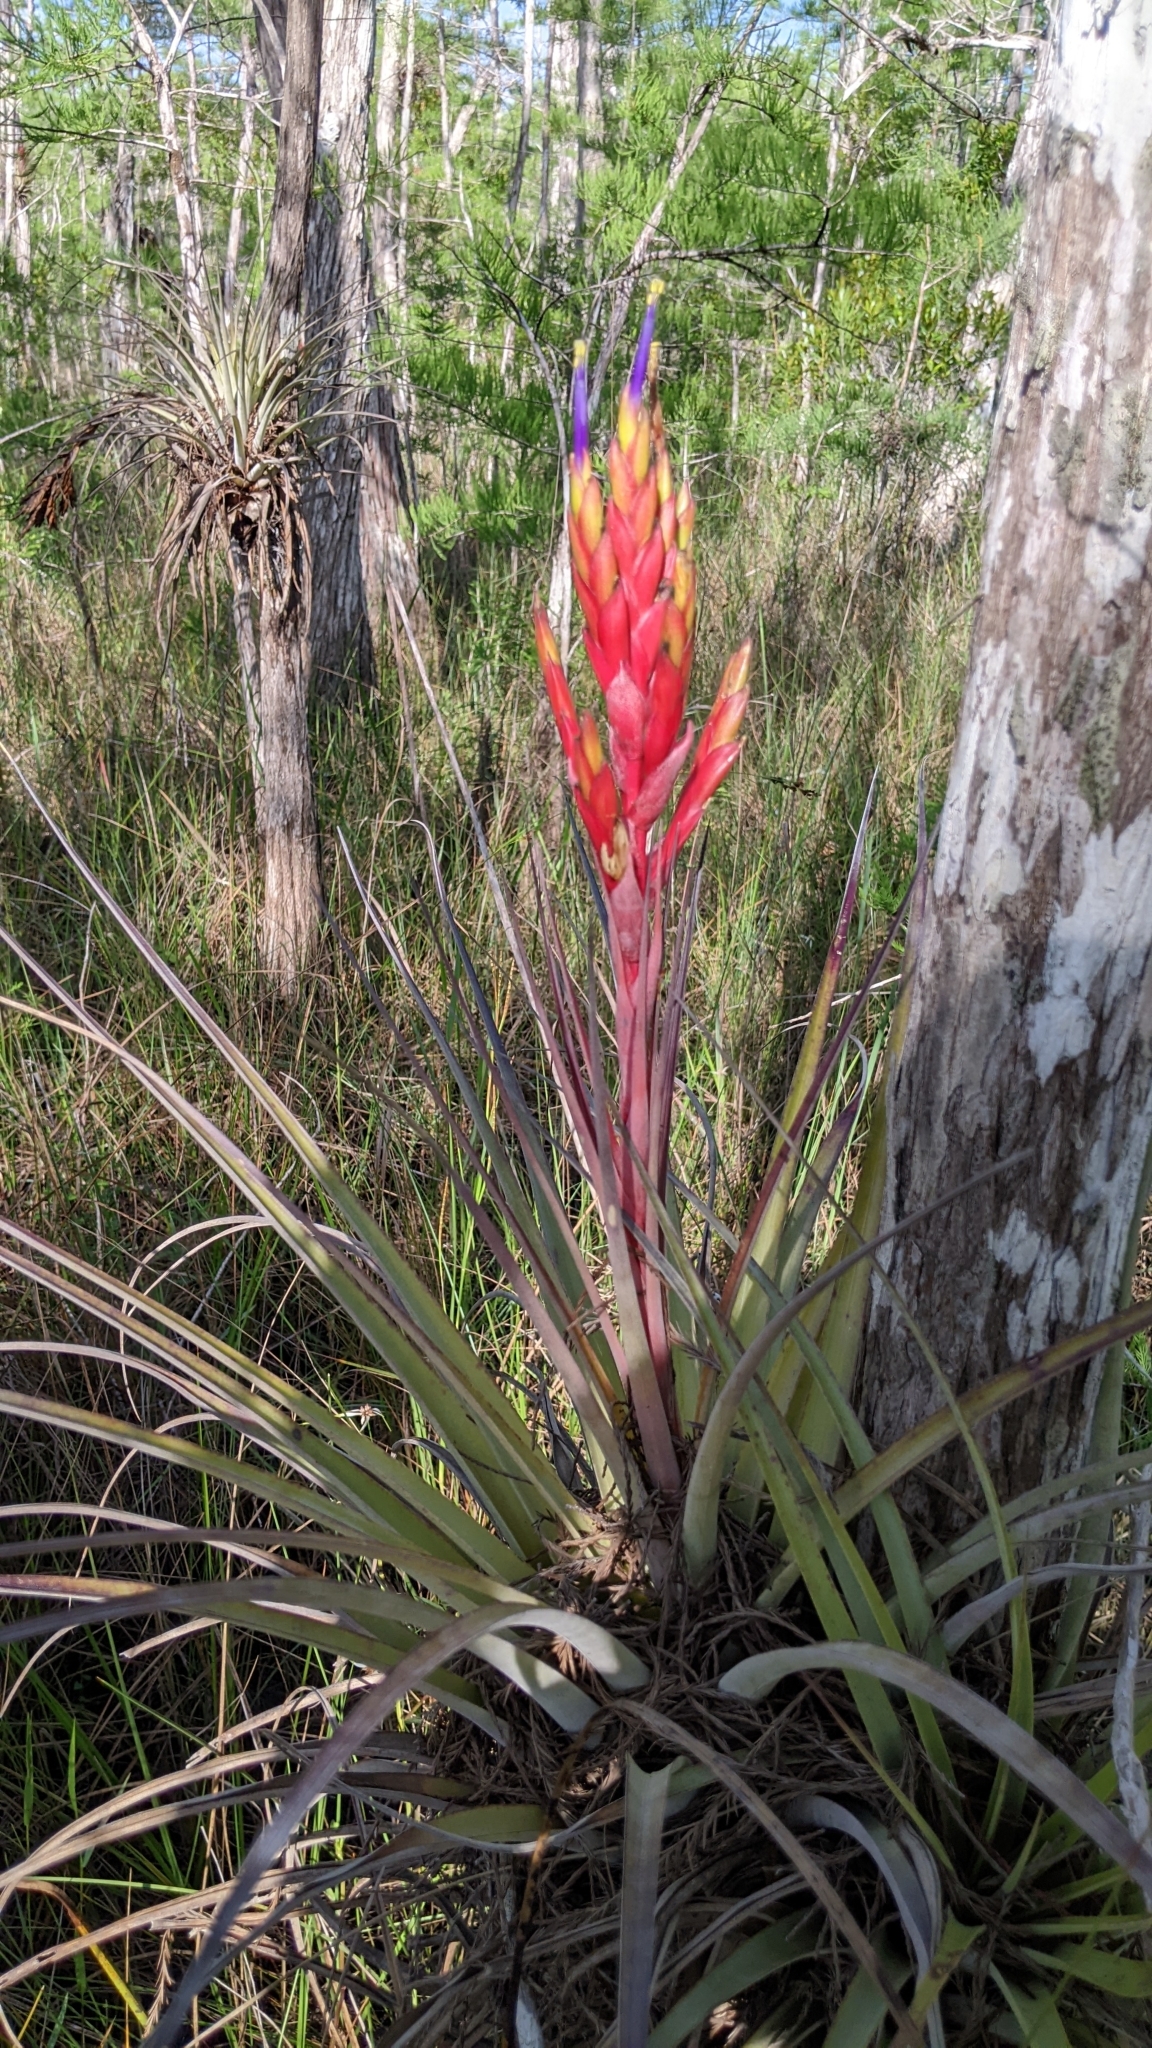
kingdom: Plantae
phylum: Tracheophyta
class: Liliopsida
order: Poales
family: Bromeliaceae
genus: Tillandsia
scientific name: Tillandsia fasciculata
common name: Giant airplant
